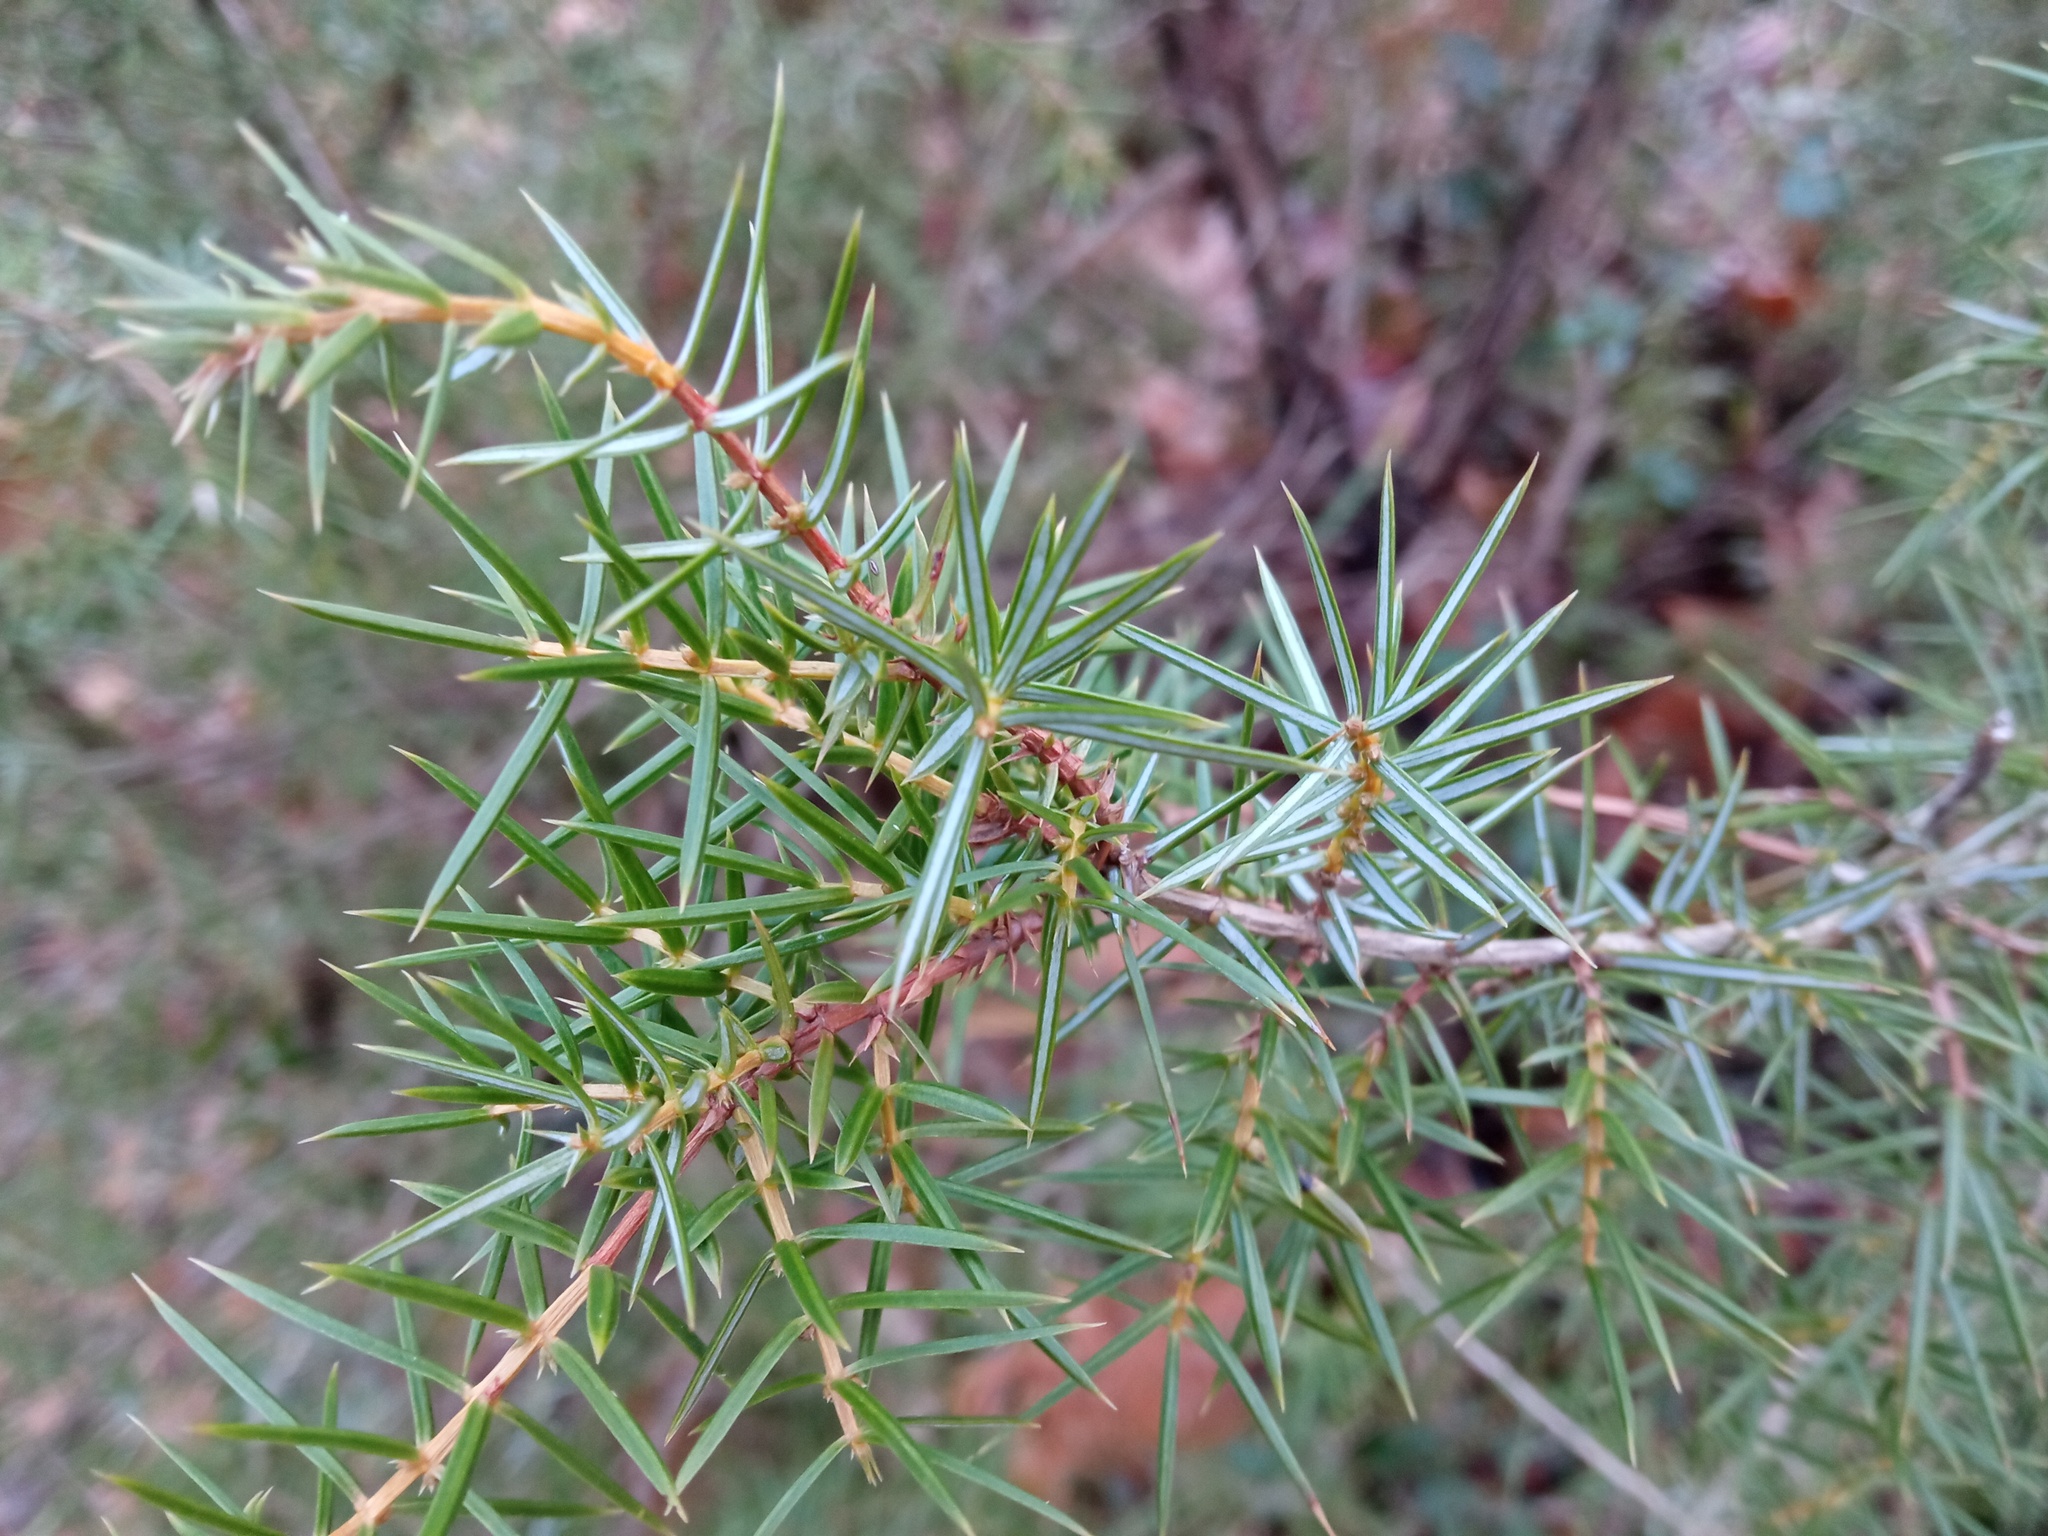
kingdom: Plantae
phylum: Tracheophyta
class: Pinopsida
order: Pinales
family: Cupressaceae
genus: Juniperus
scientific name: Juniperus communis
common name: Common juniper
